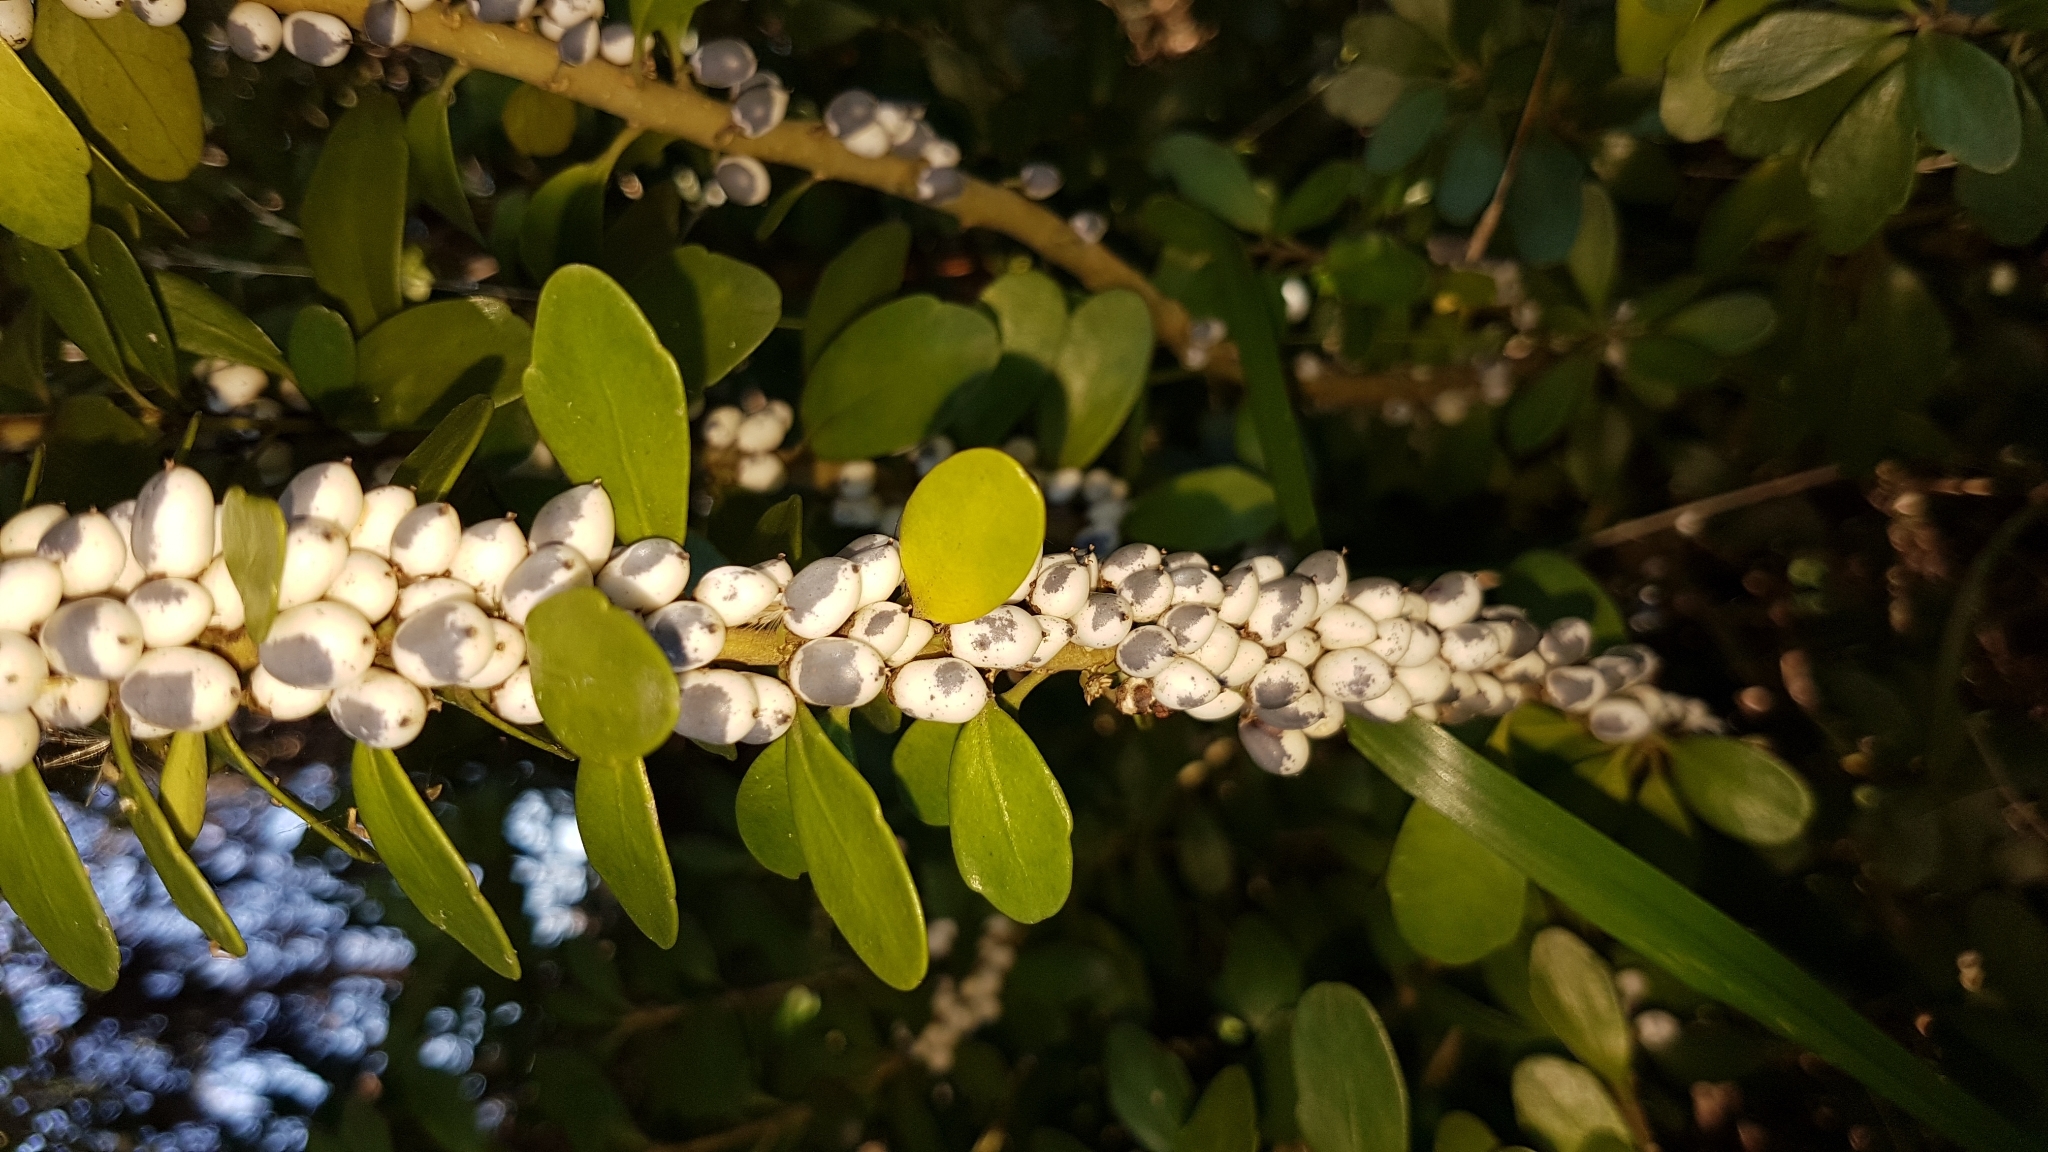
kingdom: Plantae
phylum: Tracheophyta
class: Magnoliopsida
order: Malpighiales
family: Violaceae
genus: Melicytus
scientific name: Melicytus orarius
